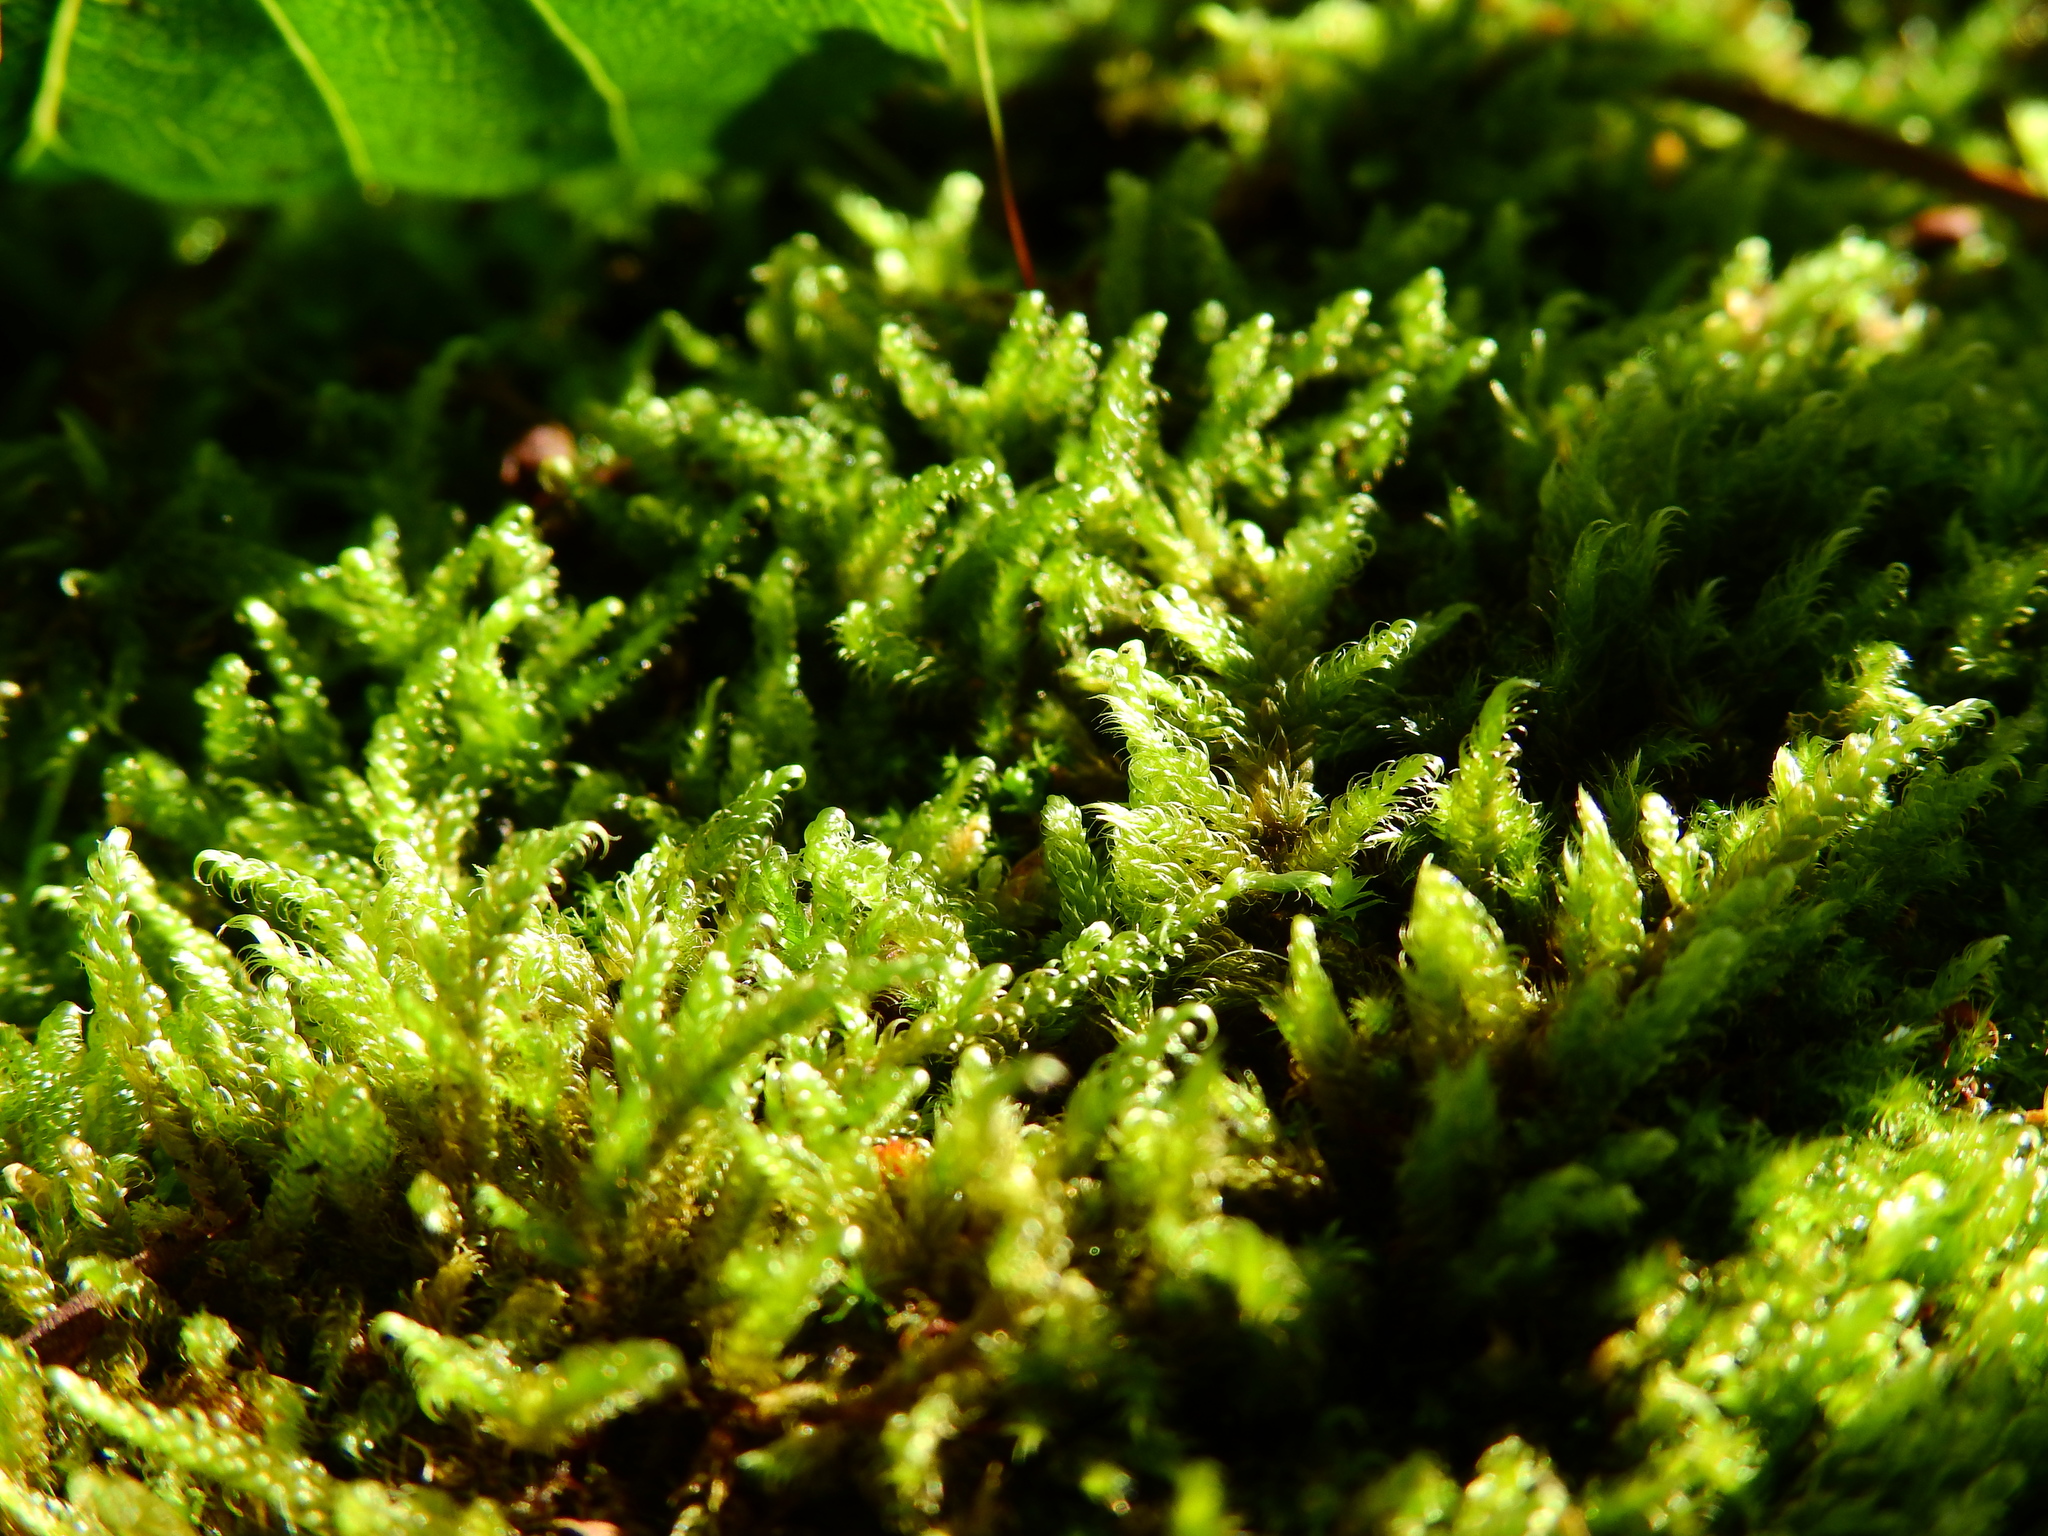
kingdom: Plantae
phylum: Bryophyta
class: Bryopsida
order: Hypnales
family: Hypnaceae
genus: Hypnum
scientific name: Hypnum cupressiforme
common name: Cypress-leaved plait-moss
